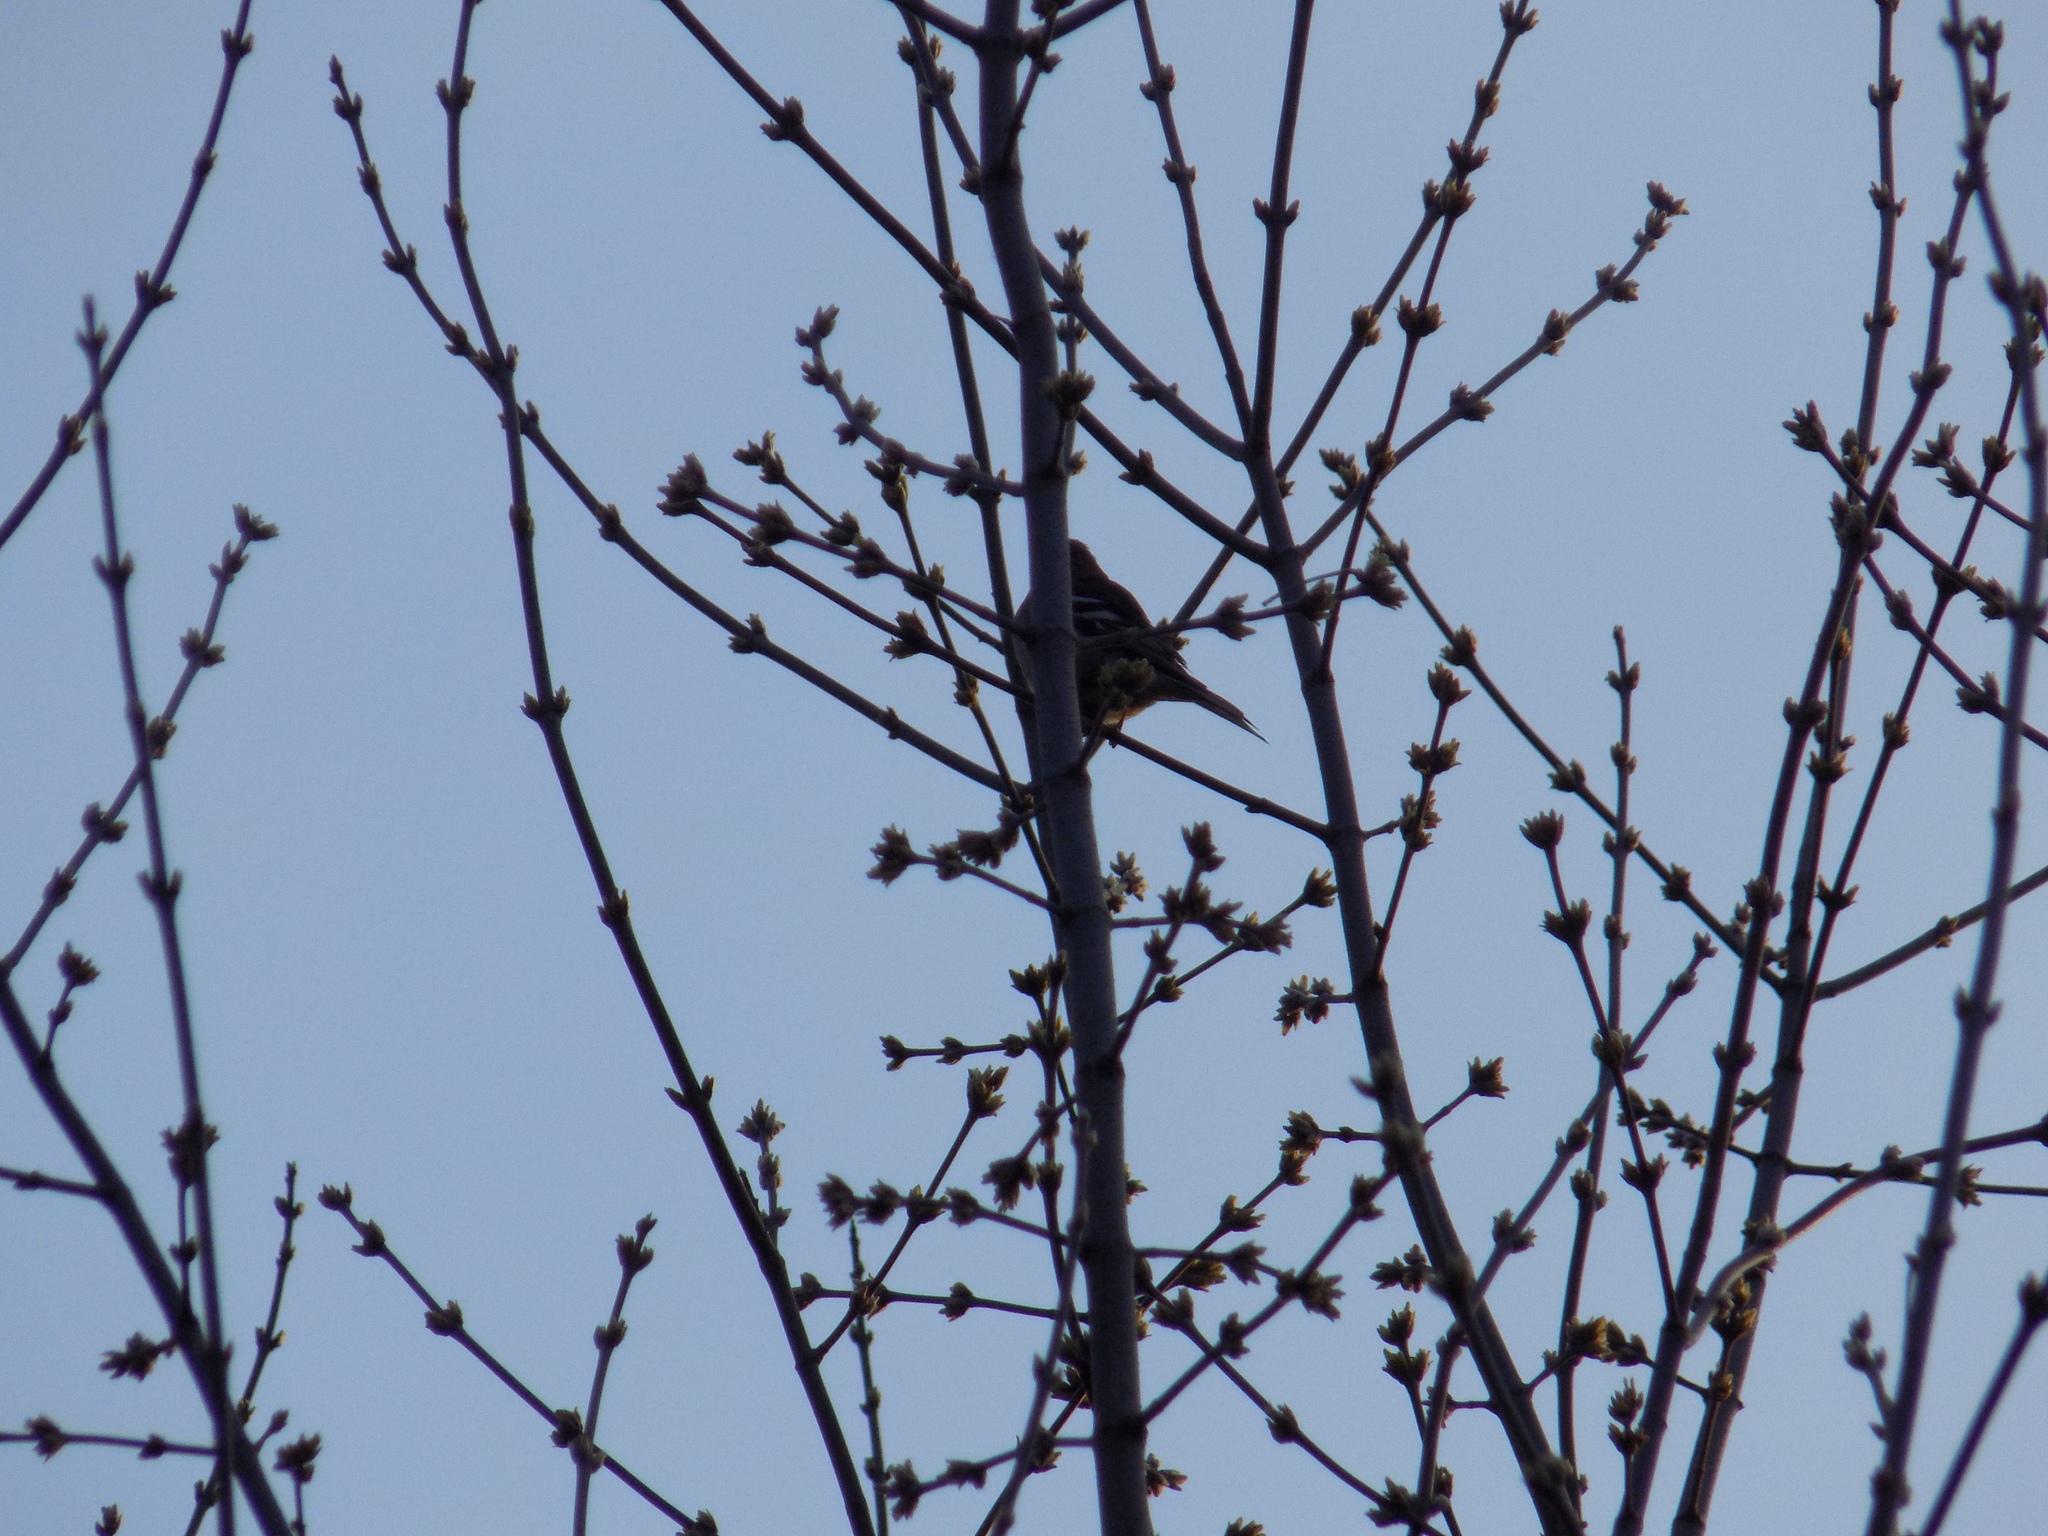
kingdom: Animalia
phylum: Chordata
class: Aves
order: Passeriformes
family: Fringillidae
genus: Fringilla
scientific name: Fringilla coelebs
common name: Common chaffinch
